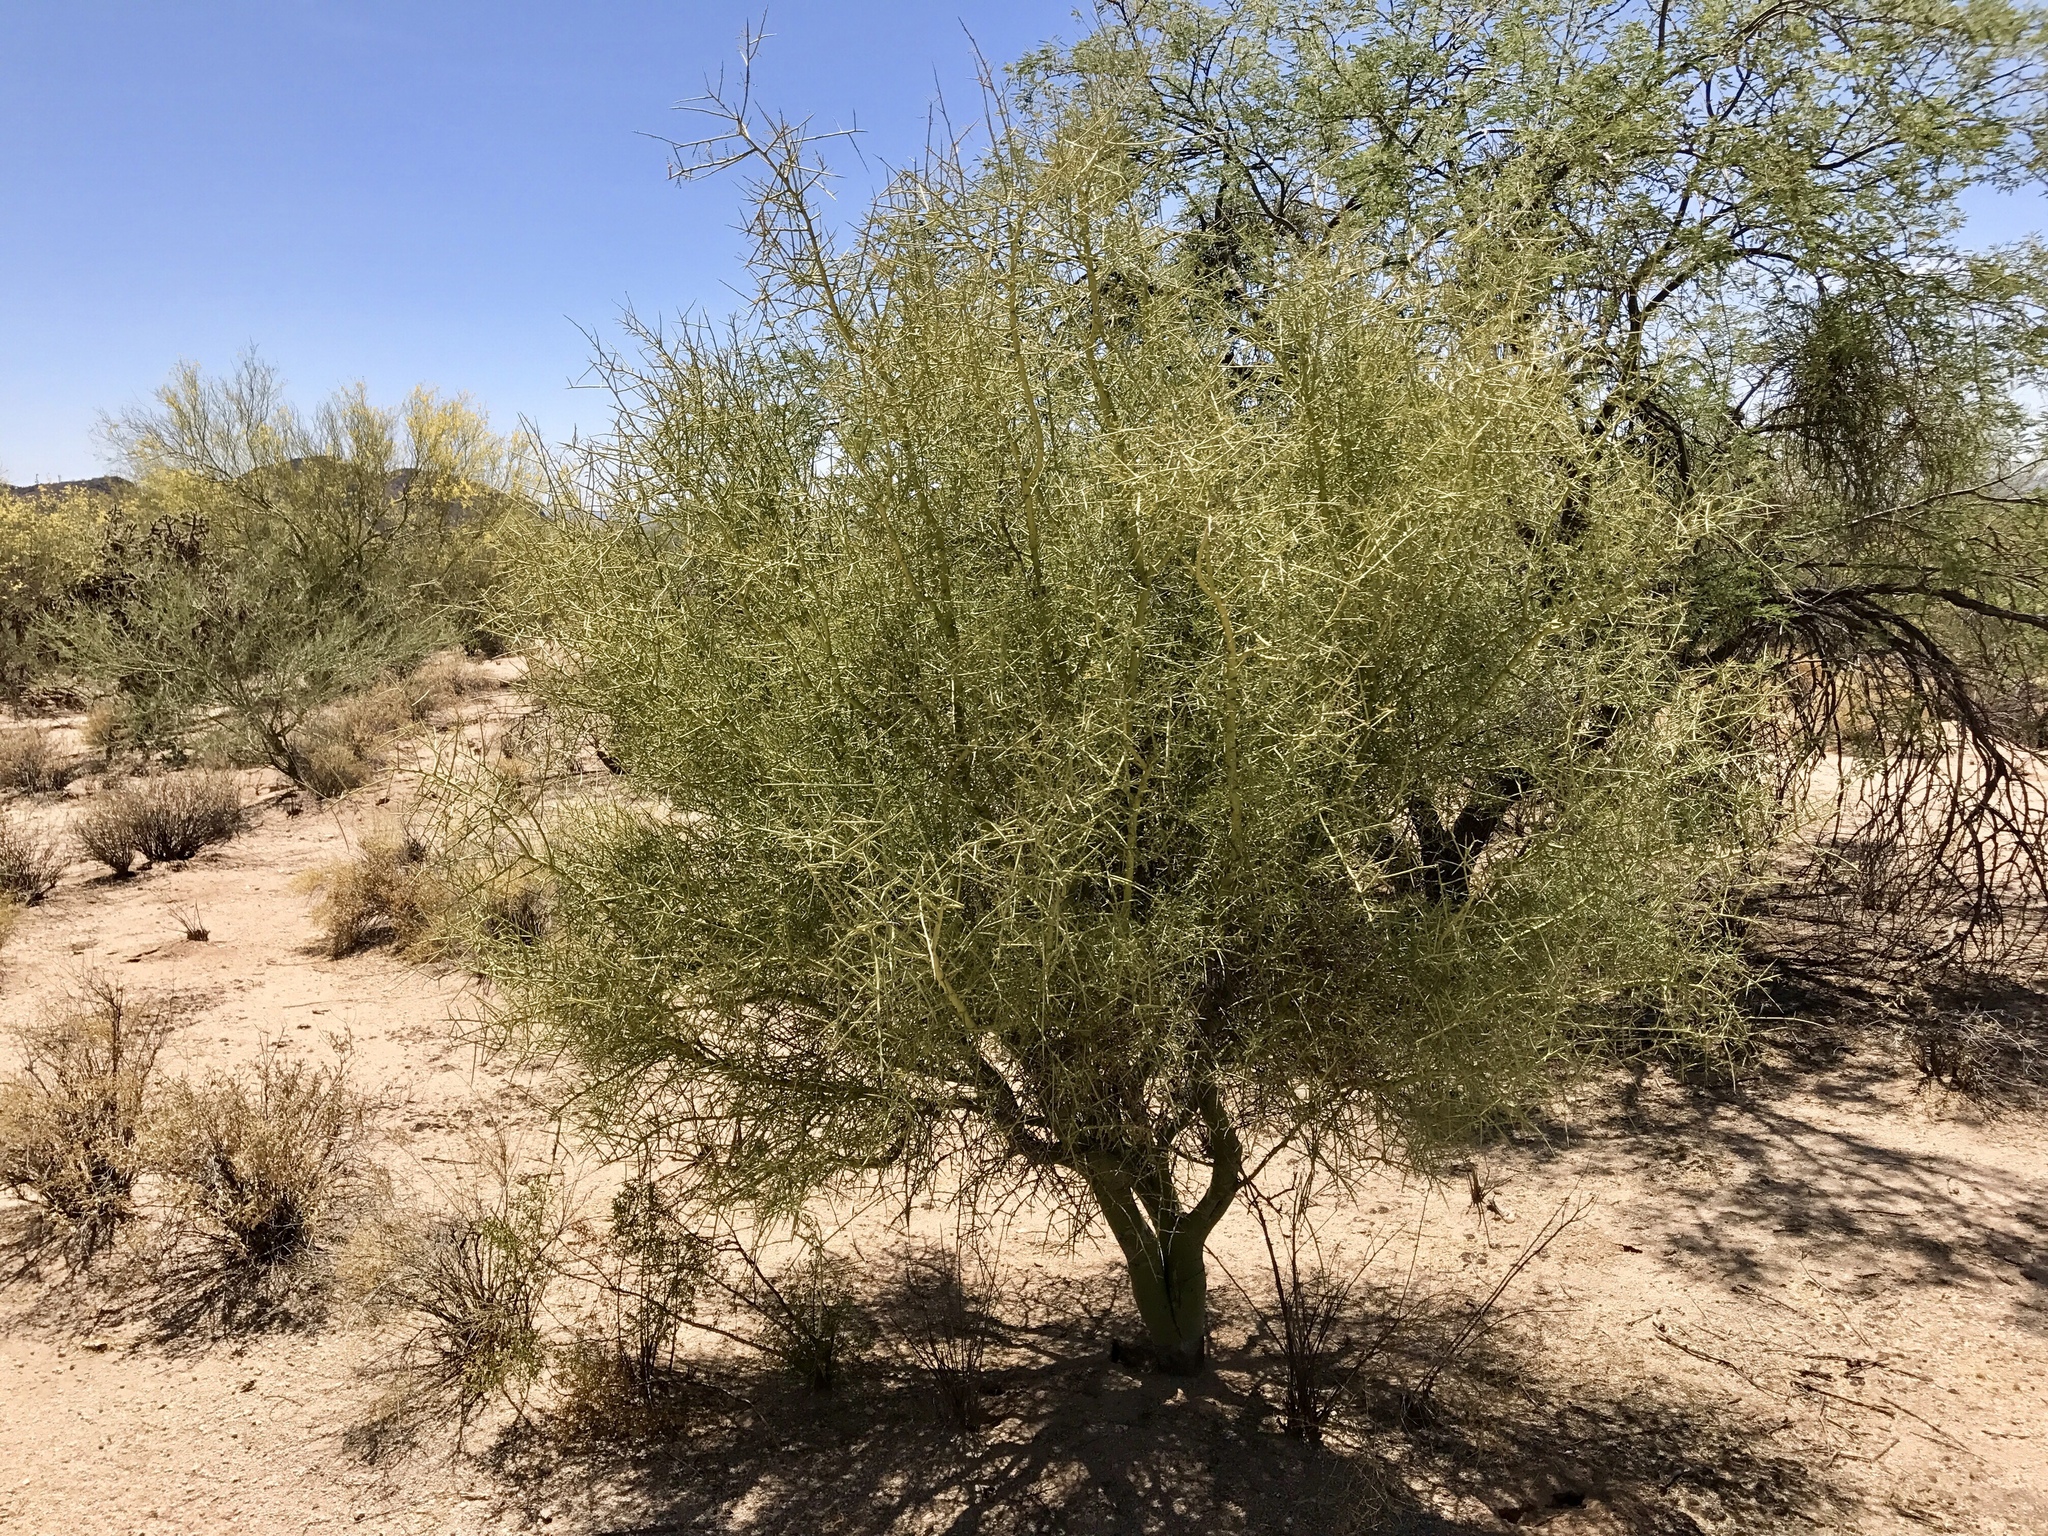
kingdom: Plantae
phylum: Tracheophyta
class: Magnoliopsida
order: Fabales
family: Fabaceae
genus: Parkinsonia
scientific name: Parkinsonia microphylla
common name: Yellow paloverde
